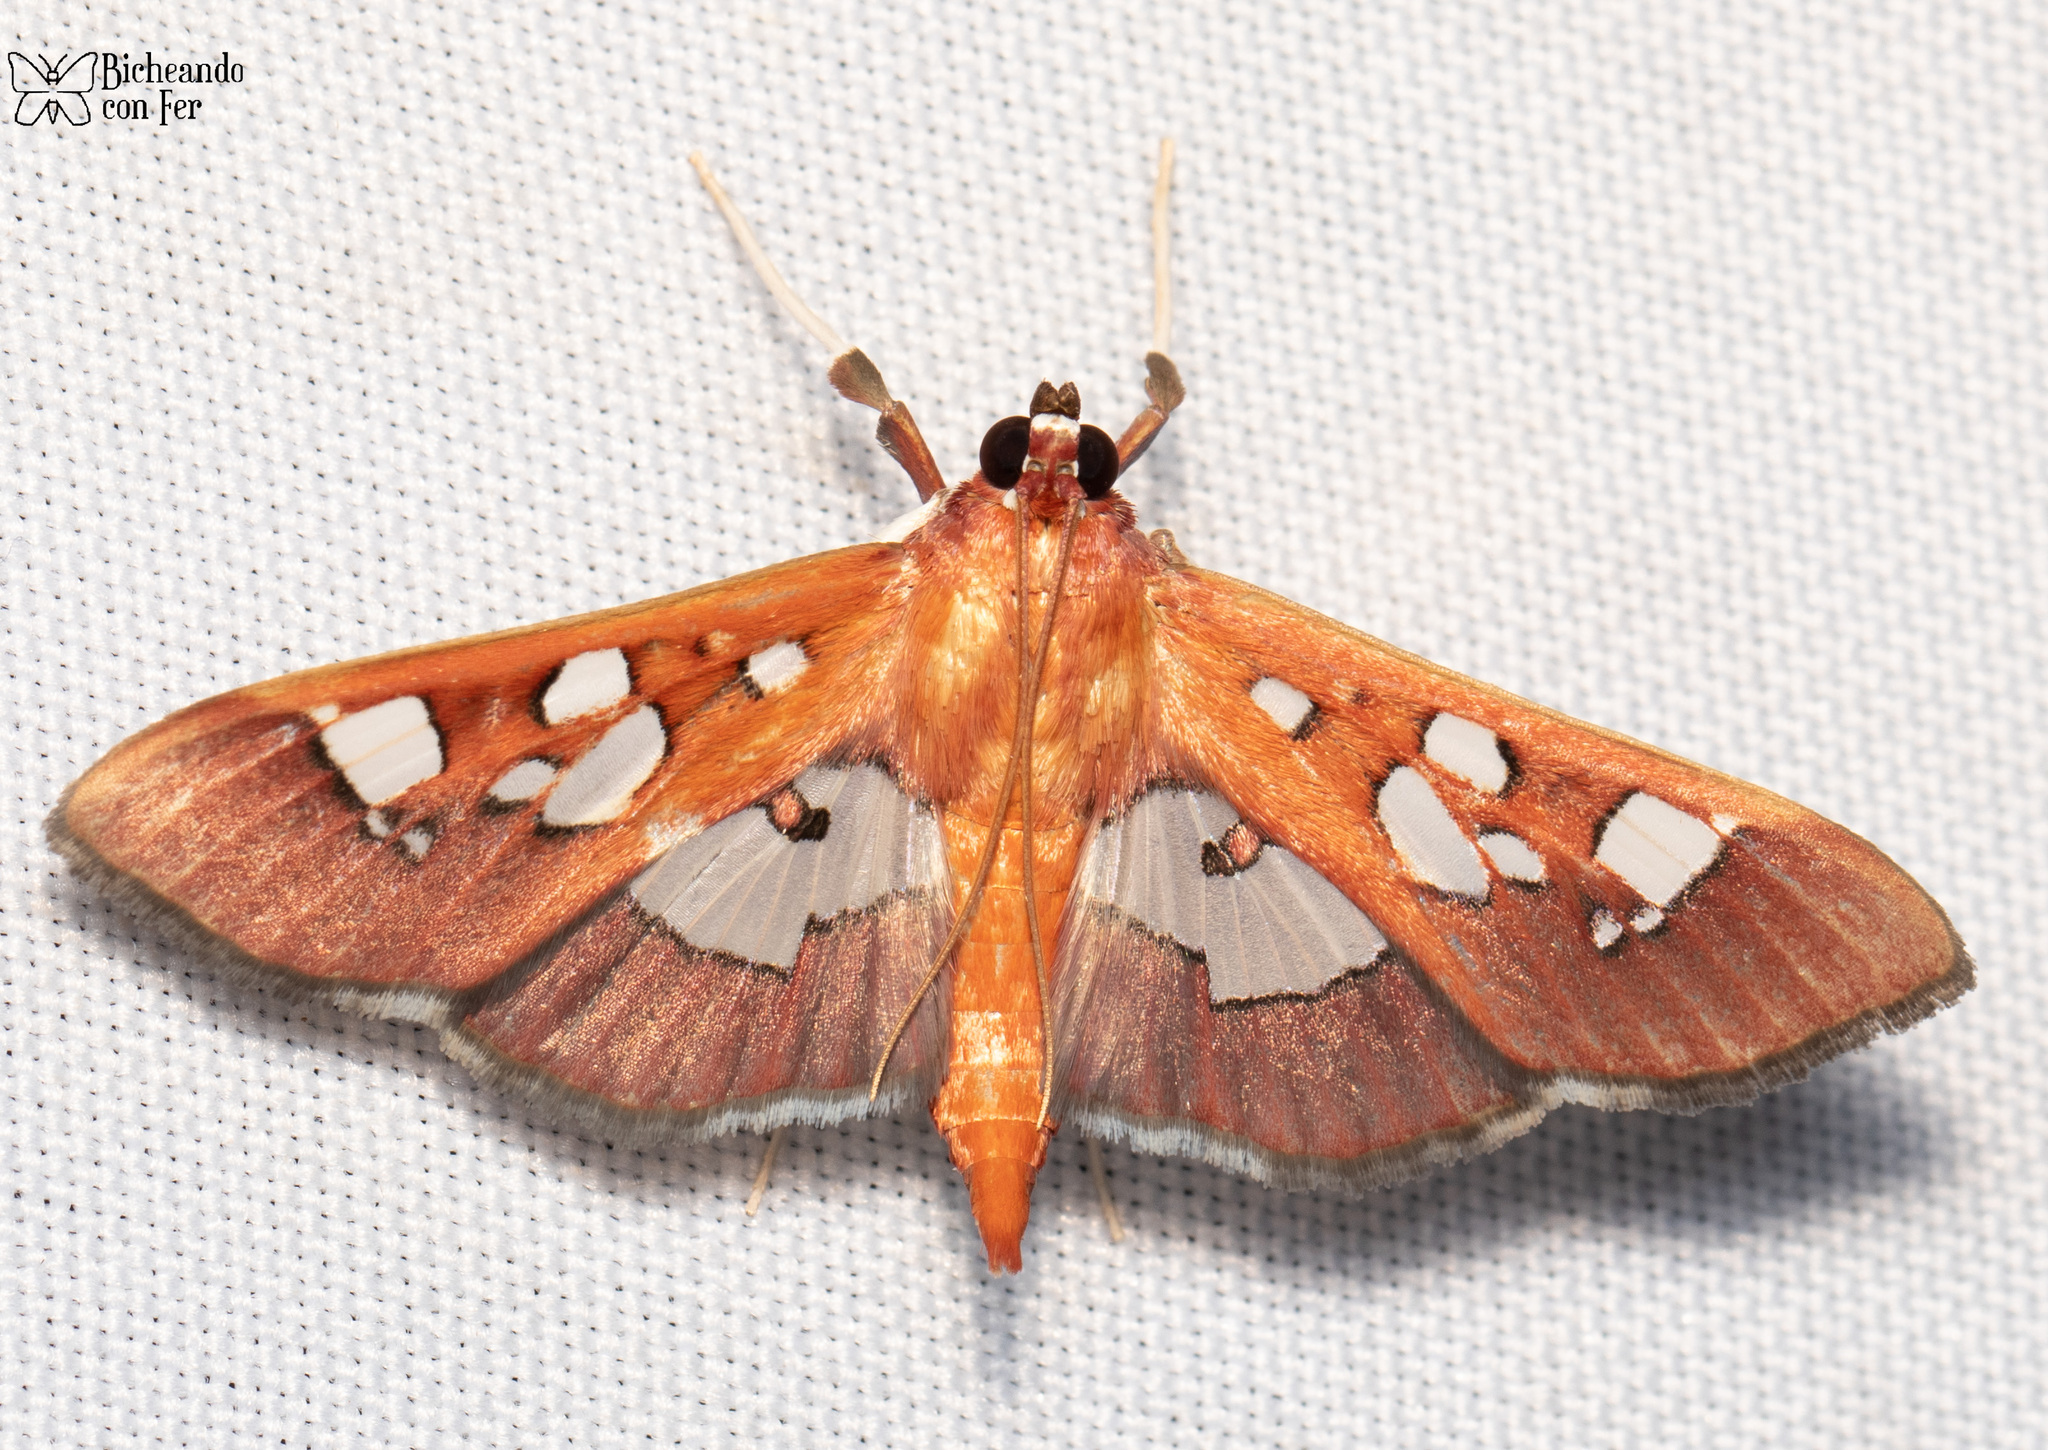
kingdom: Animalia
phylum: Arthropoda
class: Insecta
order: Lepidoptera
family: Crambidae
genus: Phostria
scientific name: Phostria tedea
